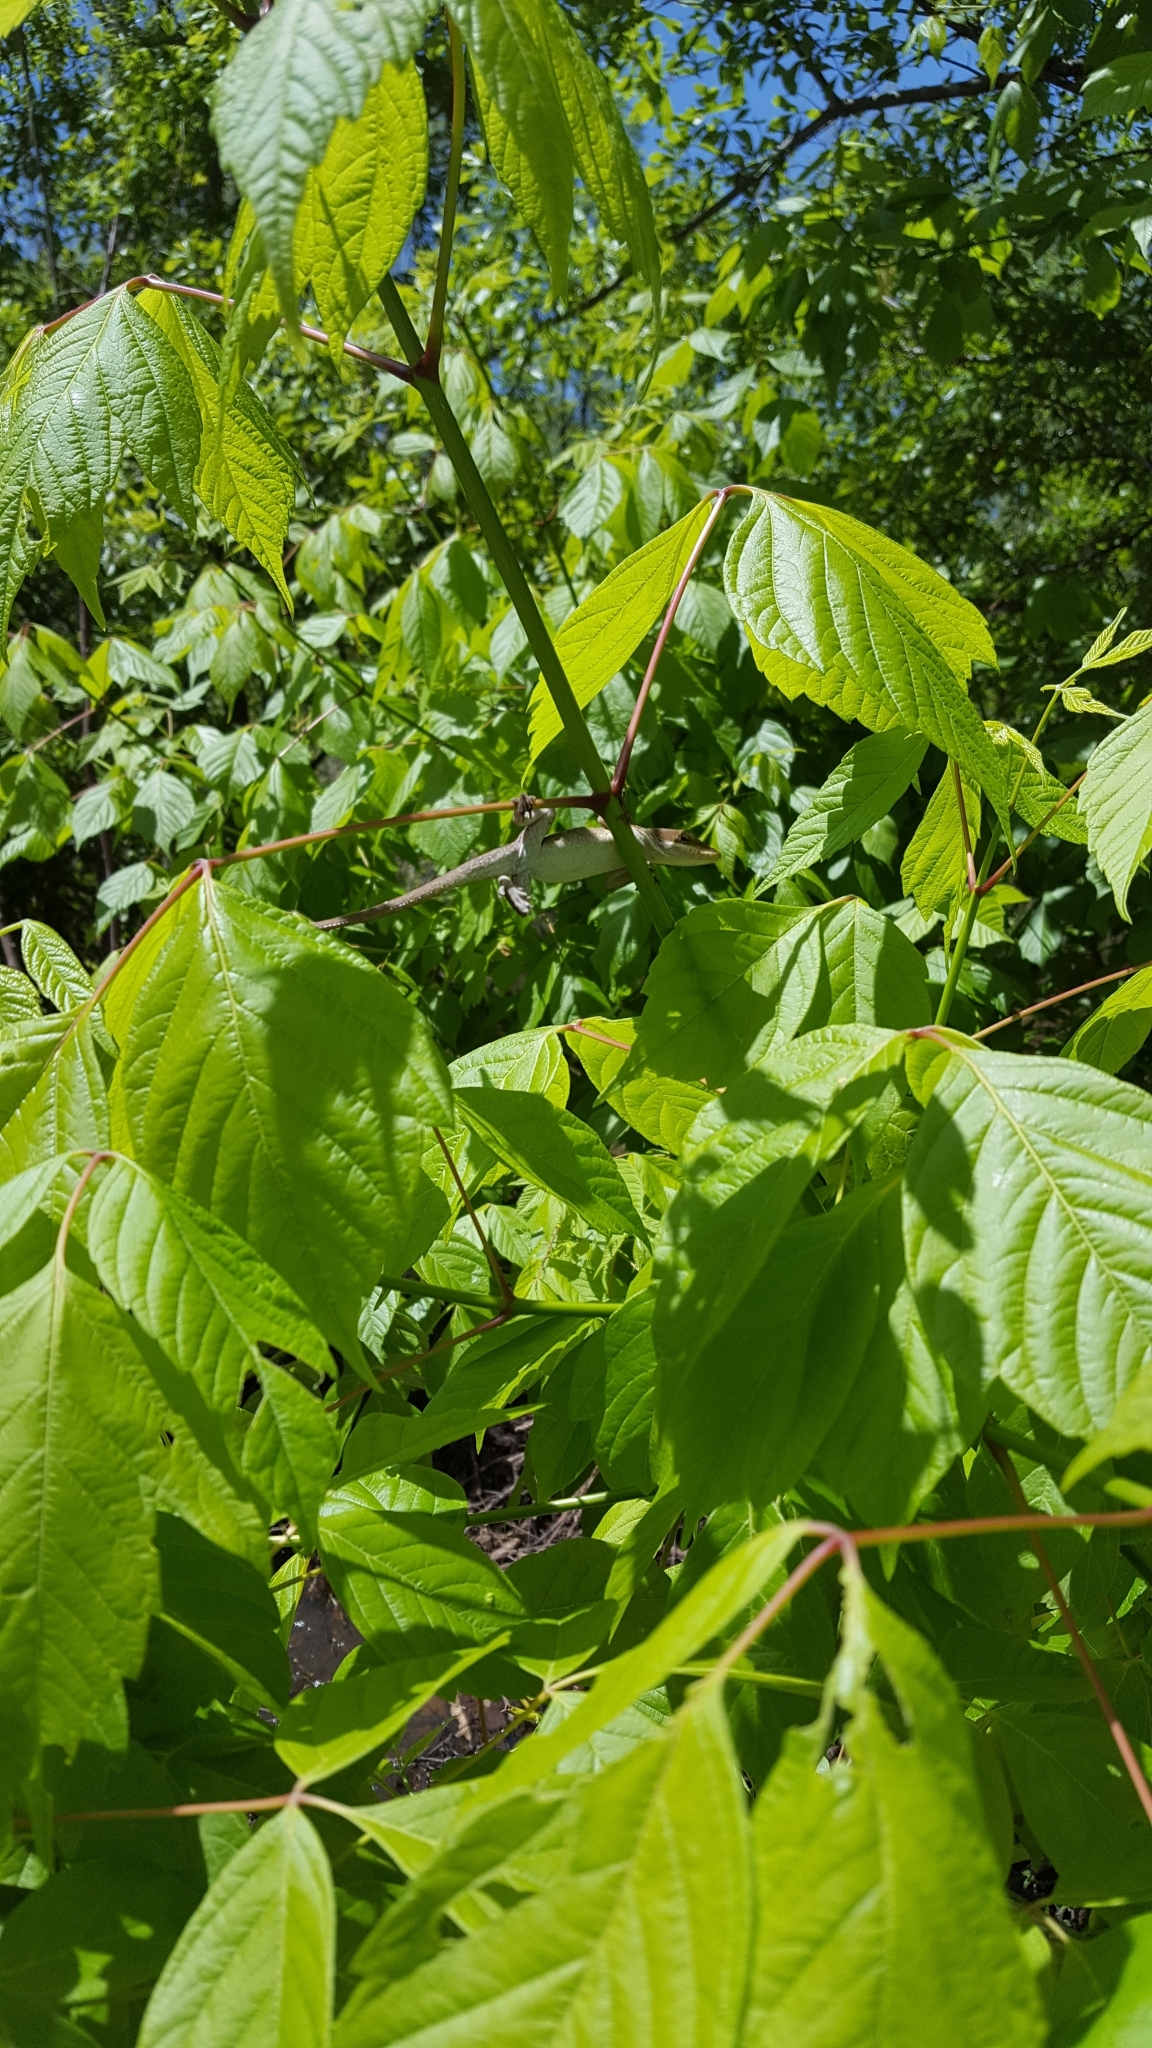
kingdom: Animalia
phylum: Chordata
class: Squamata
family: Dactyloidae
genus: Anolis
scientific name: Anolis carolinensis
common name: Green anole
